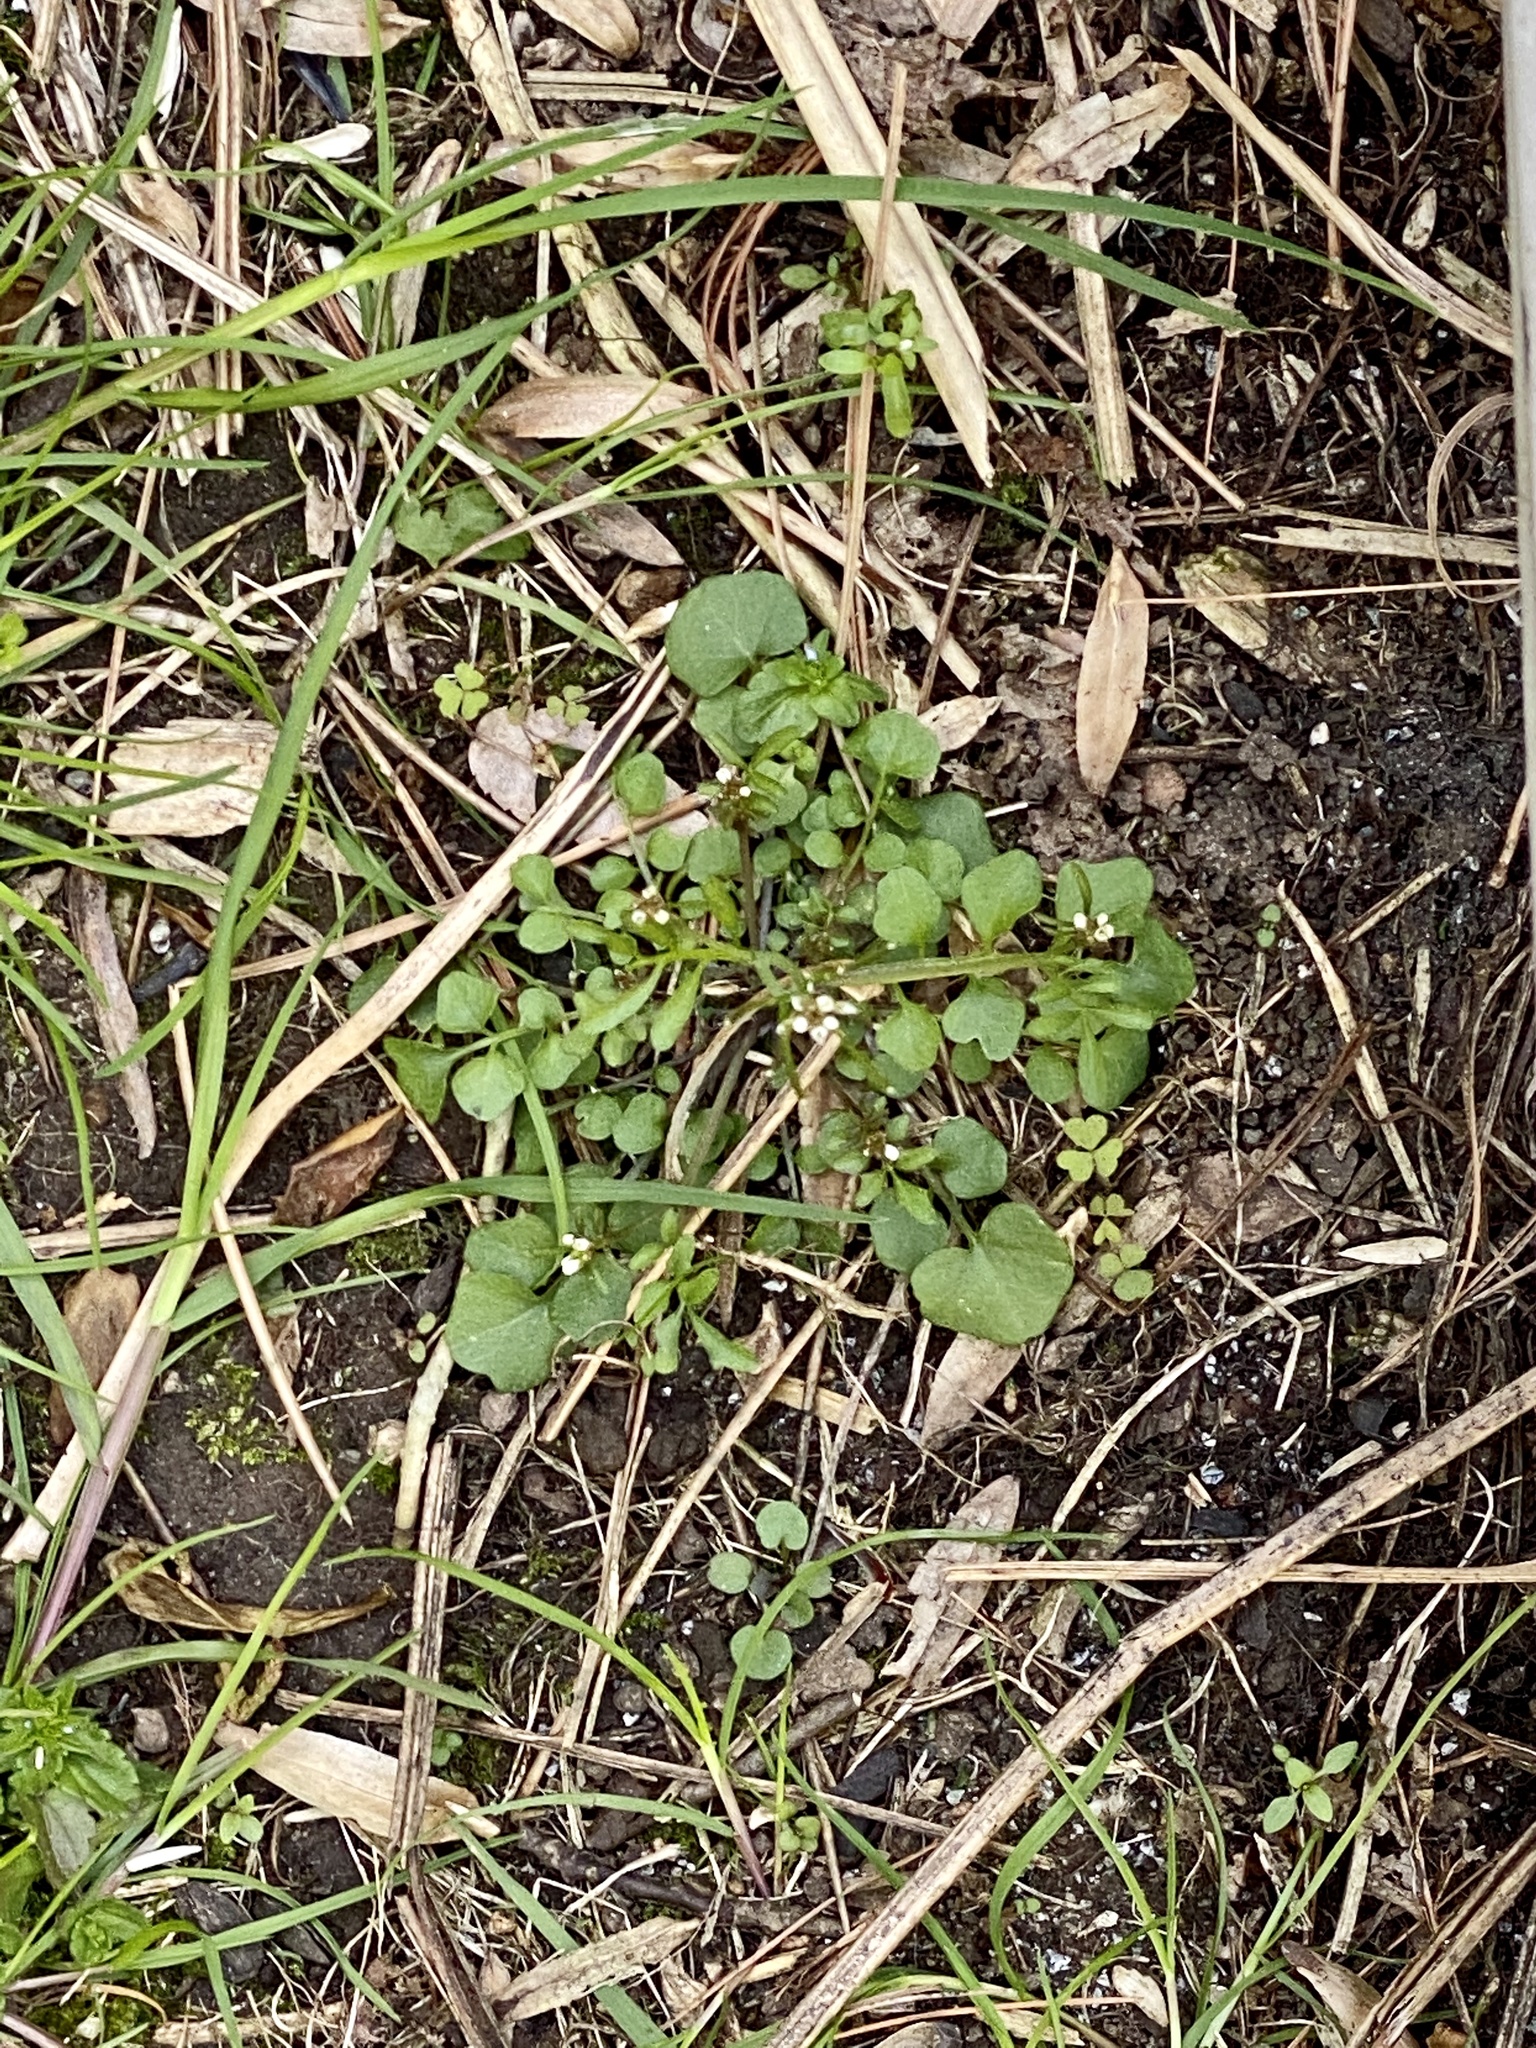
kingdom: Plantae
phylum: Tracheophyta
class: Magnoliopsida
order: Brassicales
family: Brassicaceae
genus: Cardamine
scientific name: Cardamine hirsuta
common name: Hairy bittercress
